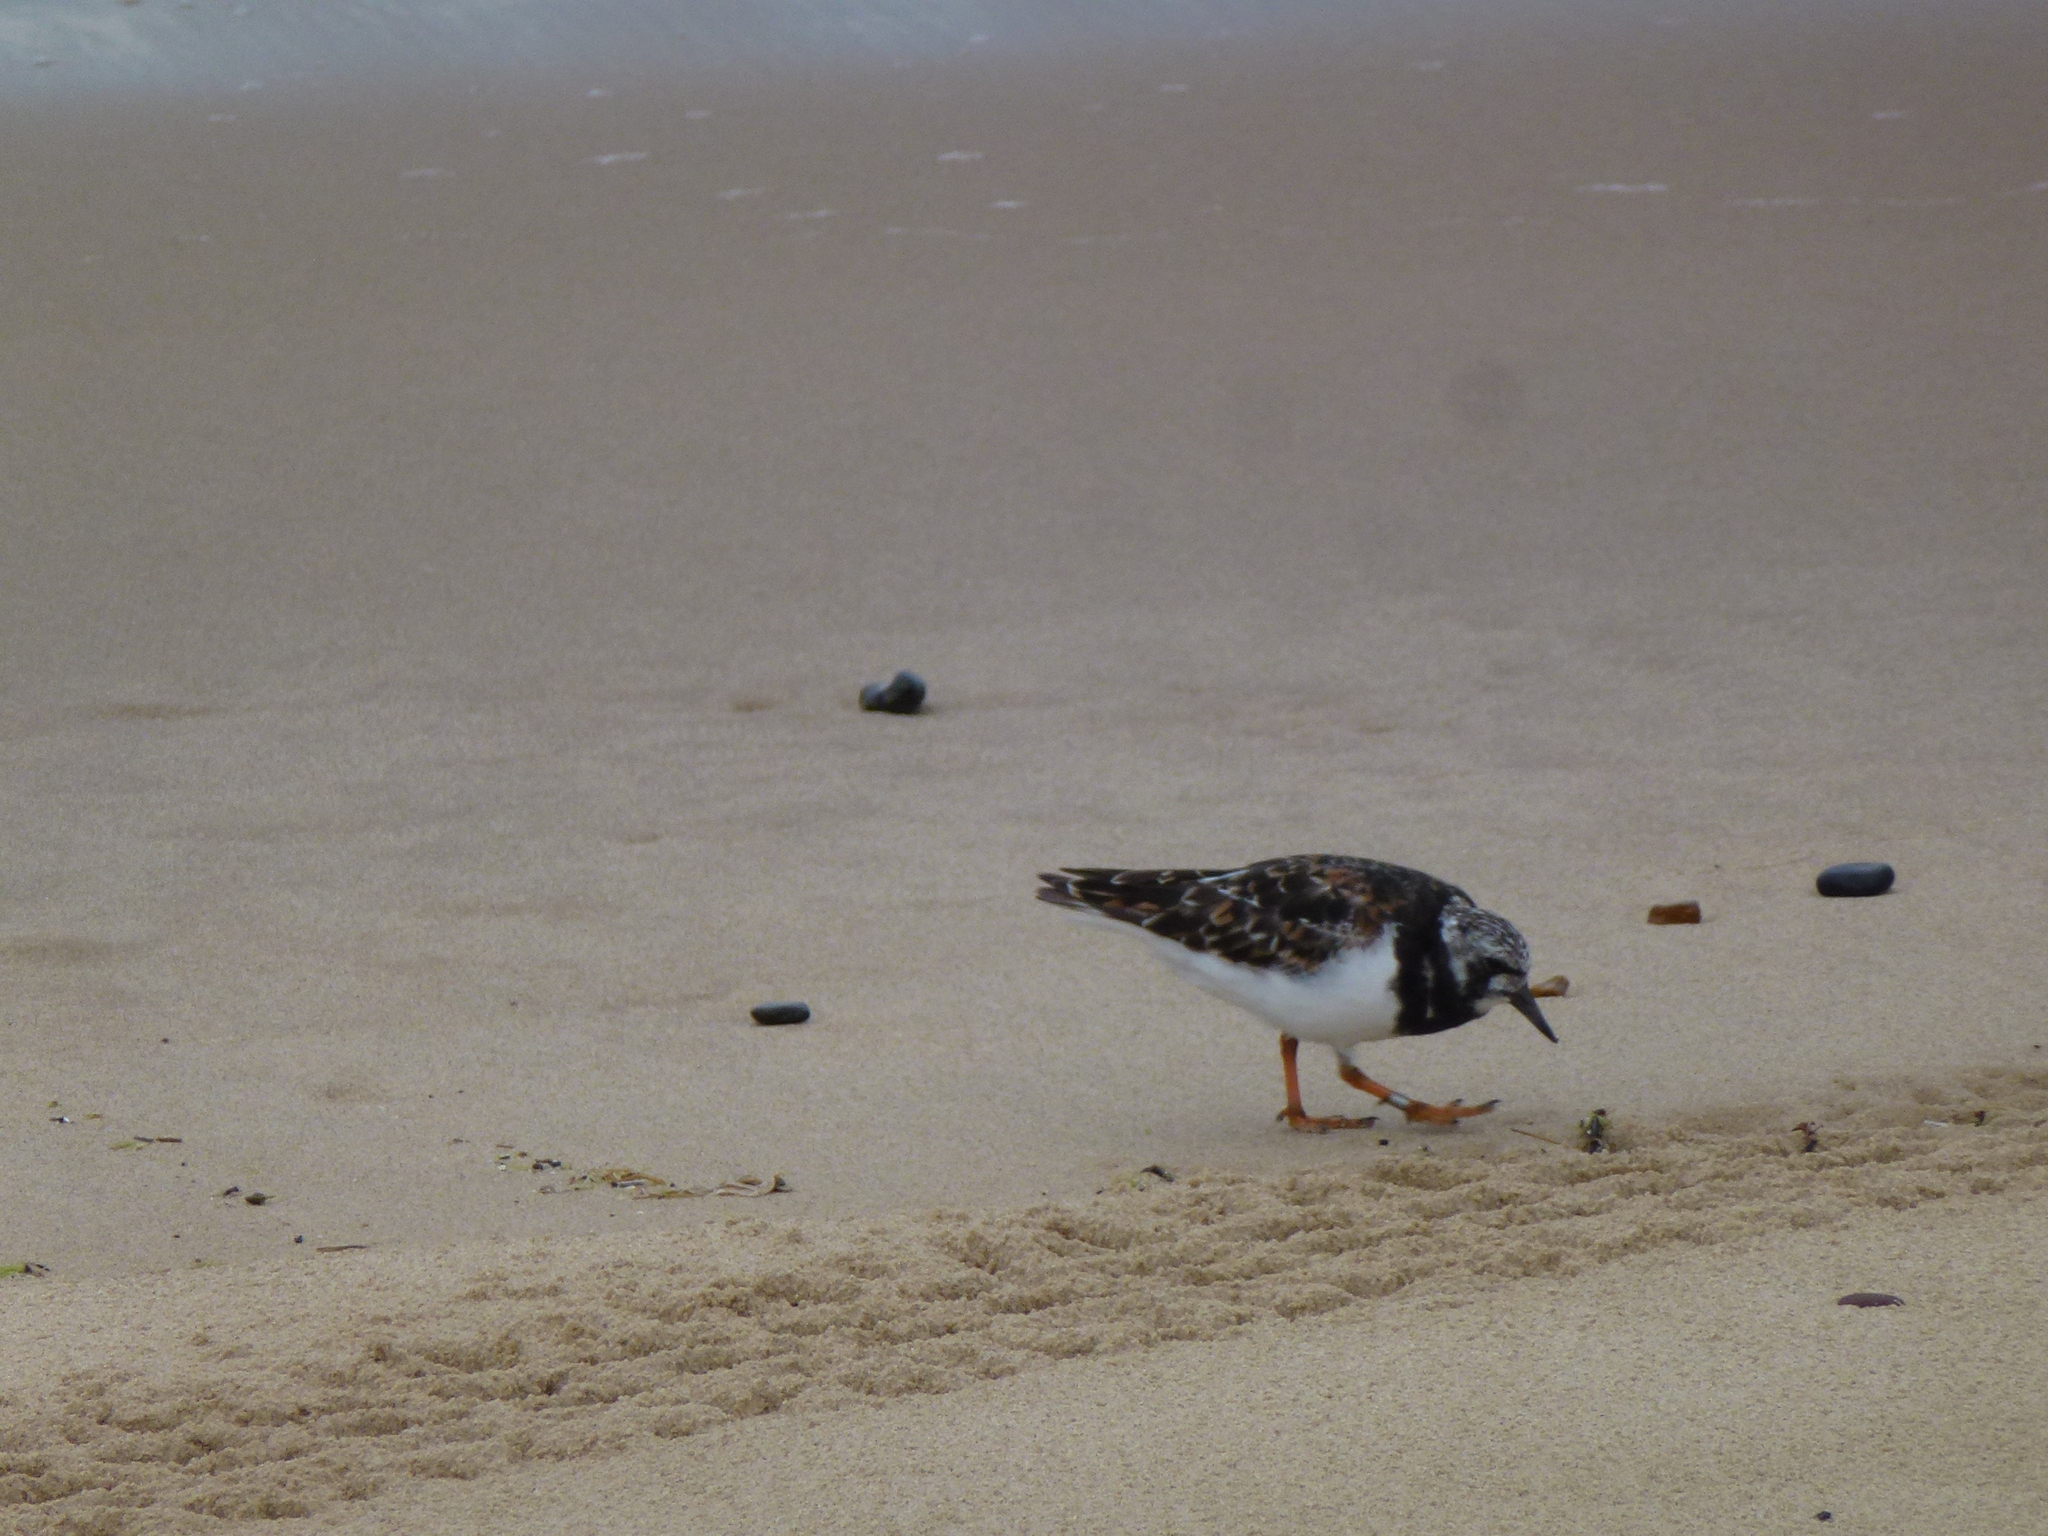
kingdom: Animalia
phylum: Chordata
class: Aves
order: Charadriiformes
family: Scolopacidae
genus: Arenaria
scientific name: Arenaria interpres
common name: Ruddy turnstone
